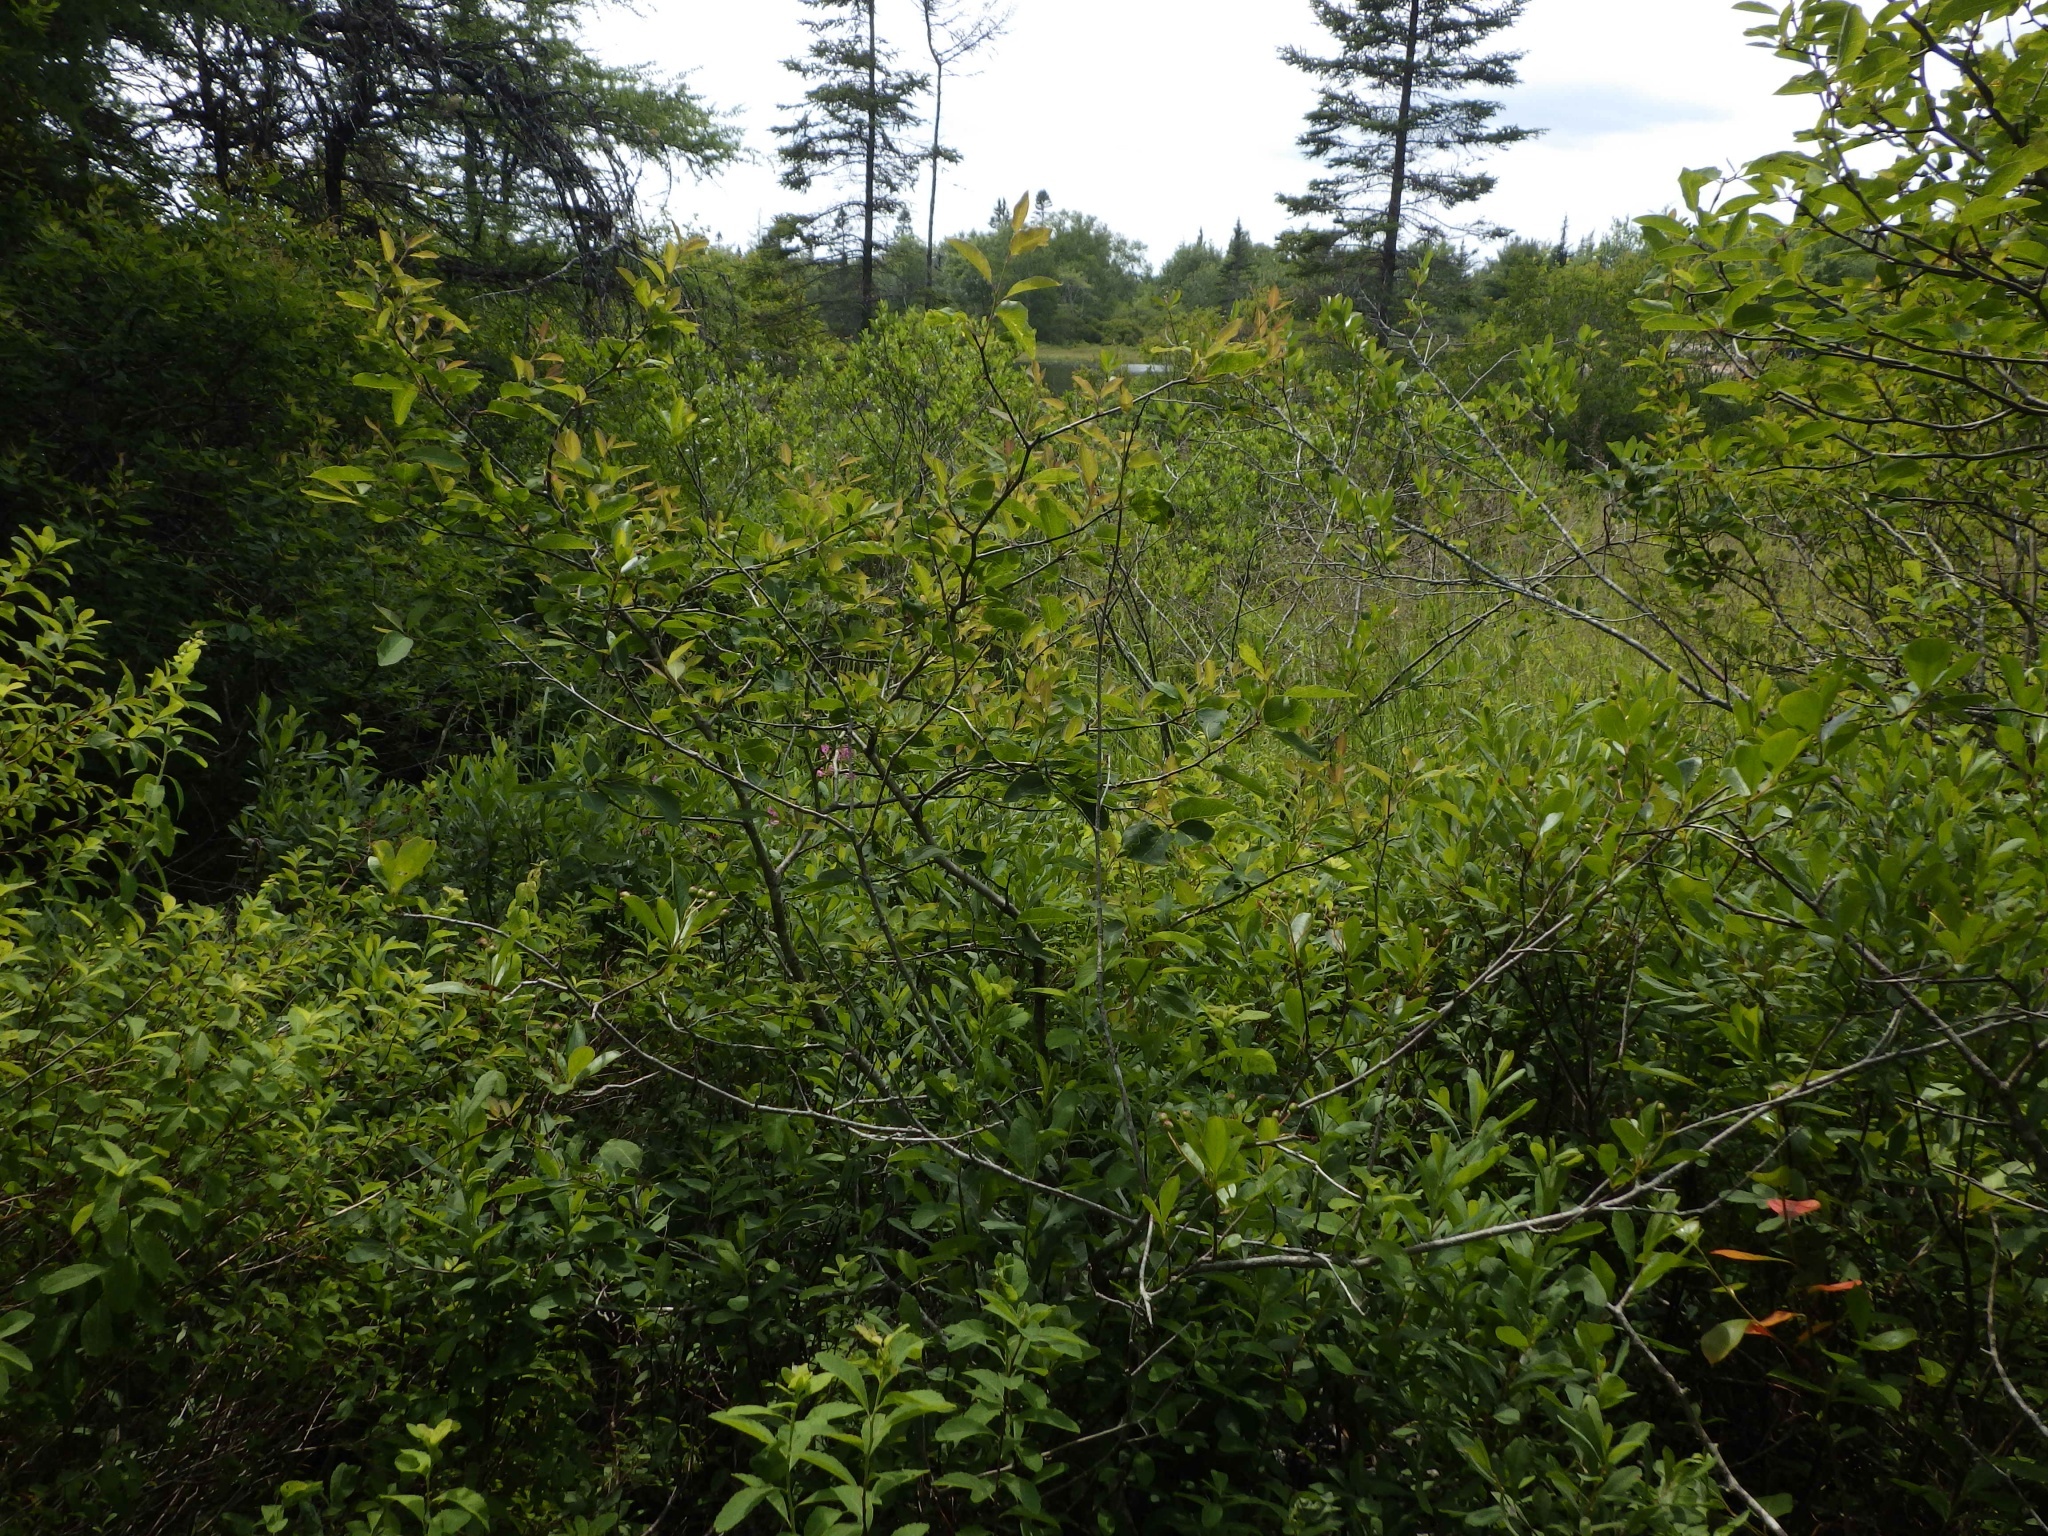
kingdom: Plantae
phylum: Tracheophyta
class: Magnoliopsida
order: Aquifoliales
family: Aquifoliaceae
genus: Ilex
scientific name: Ilex mucronata
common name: Catberry
